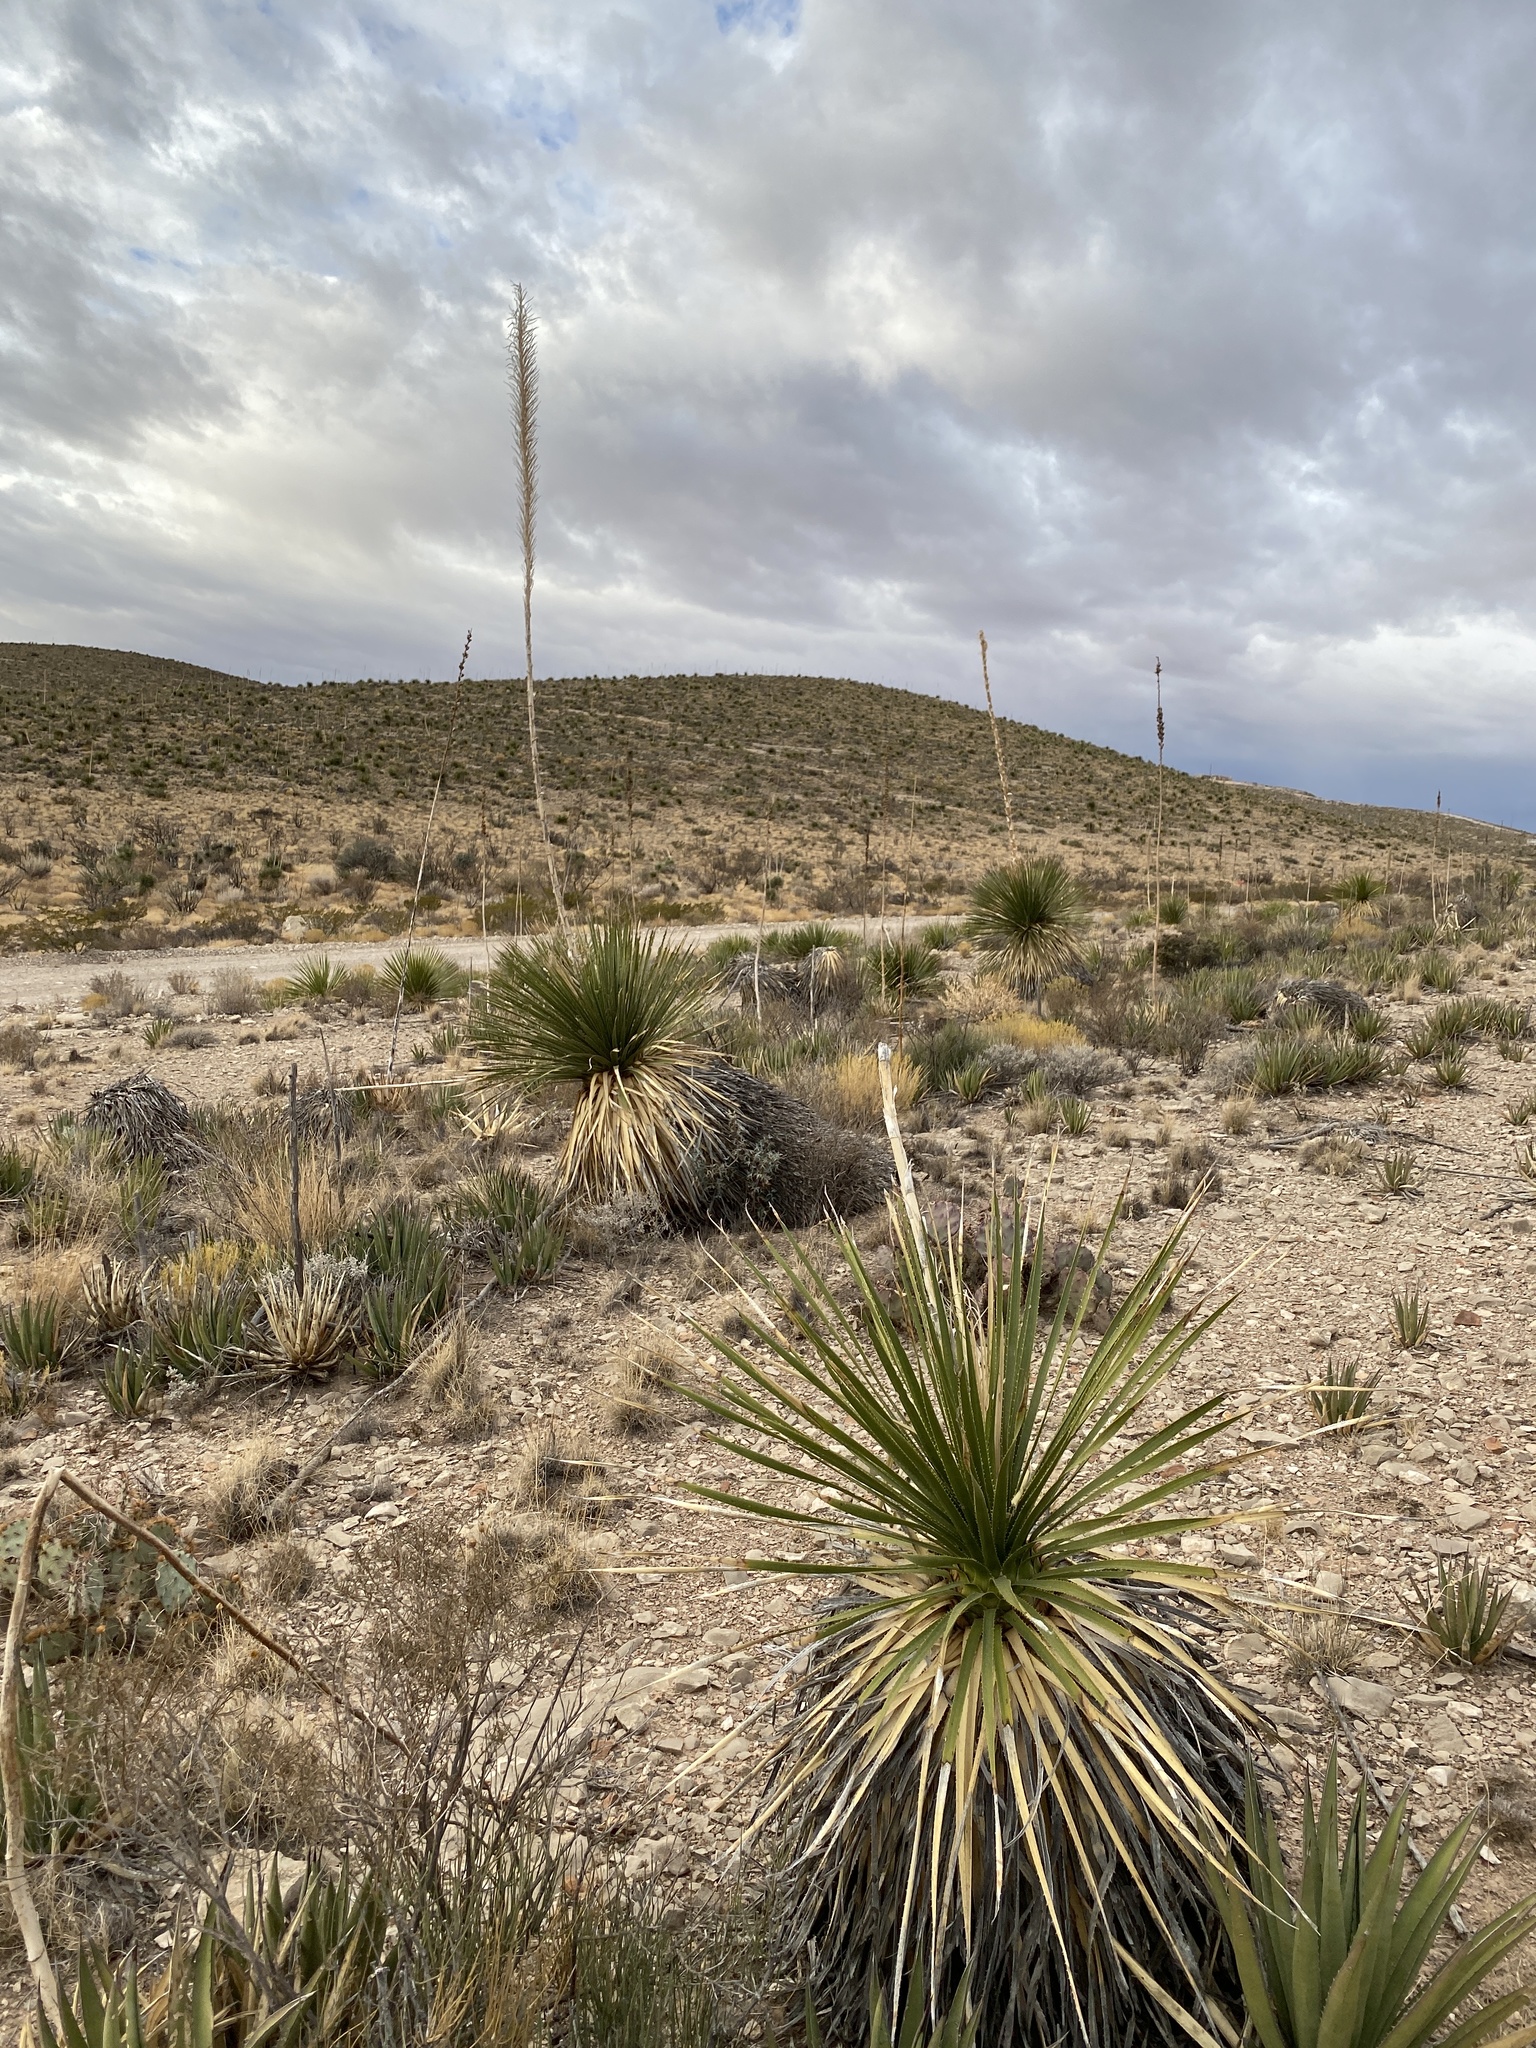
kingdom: Plantae
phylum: Tracheophyta
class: Liliopsida
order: Asparagales
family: Asparagaceae
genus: Dasylirion
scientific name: Dasylirion wheeleri
